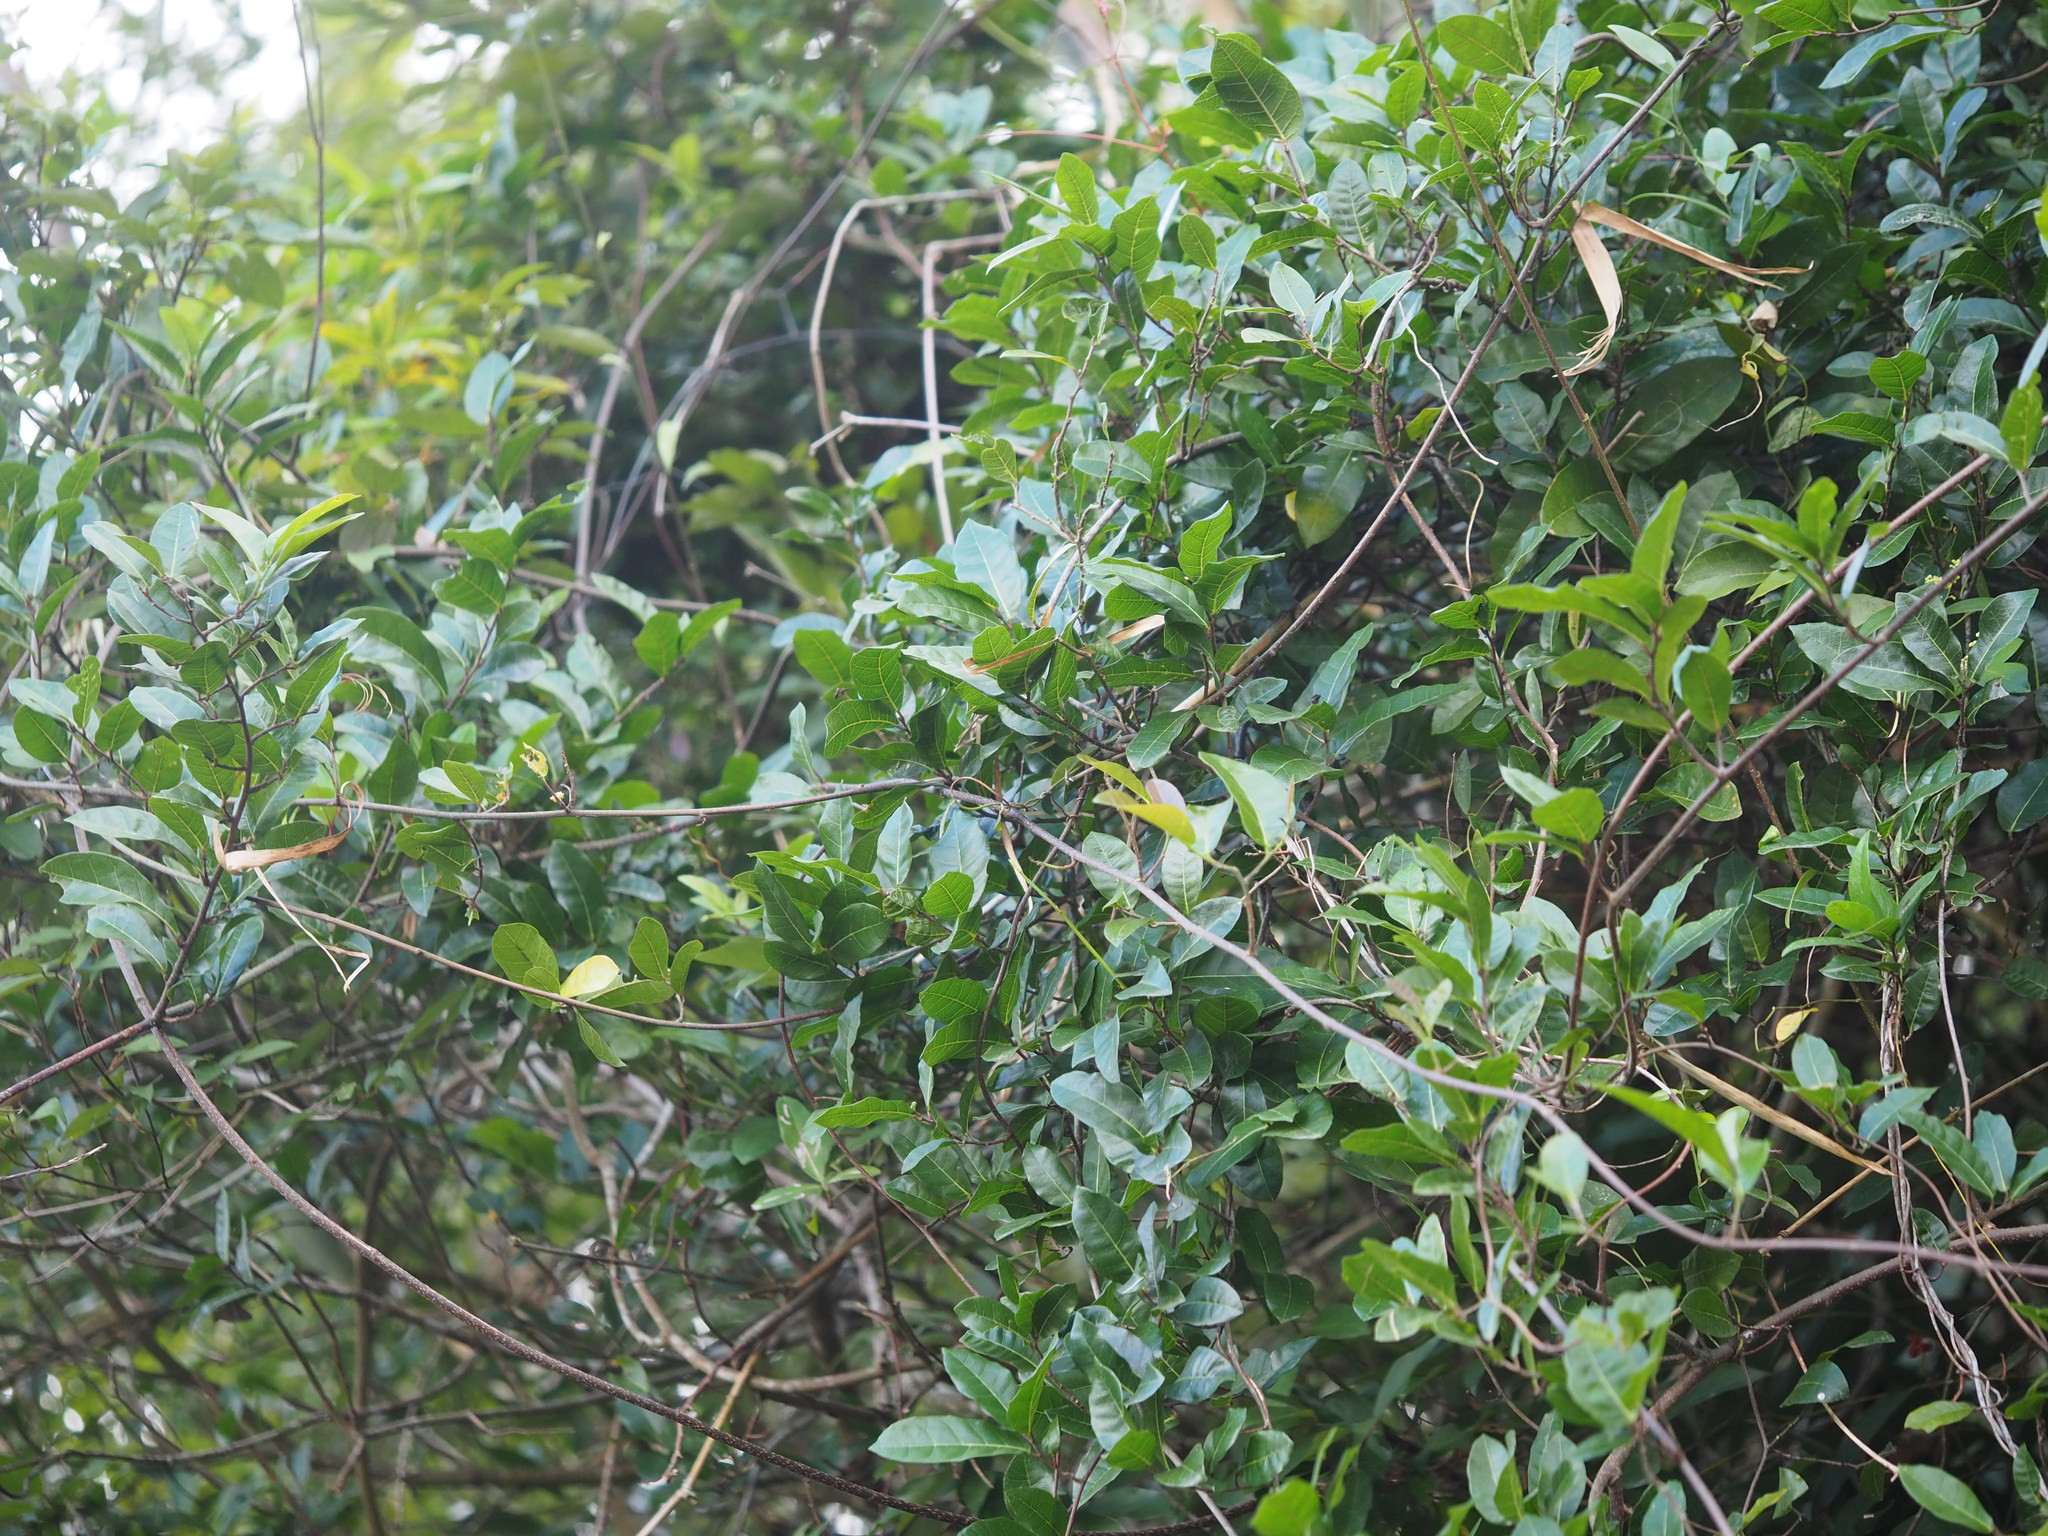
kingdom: Plantae
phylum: Tracheophyta
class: Magnoliopsida
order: Rosales
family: Moraceae
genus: Malaisia
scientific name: Malaisia scandens
